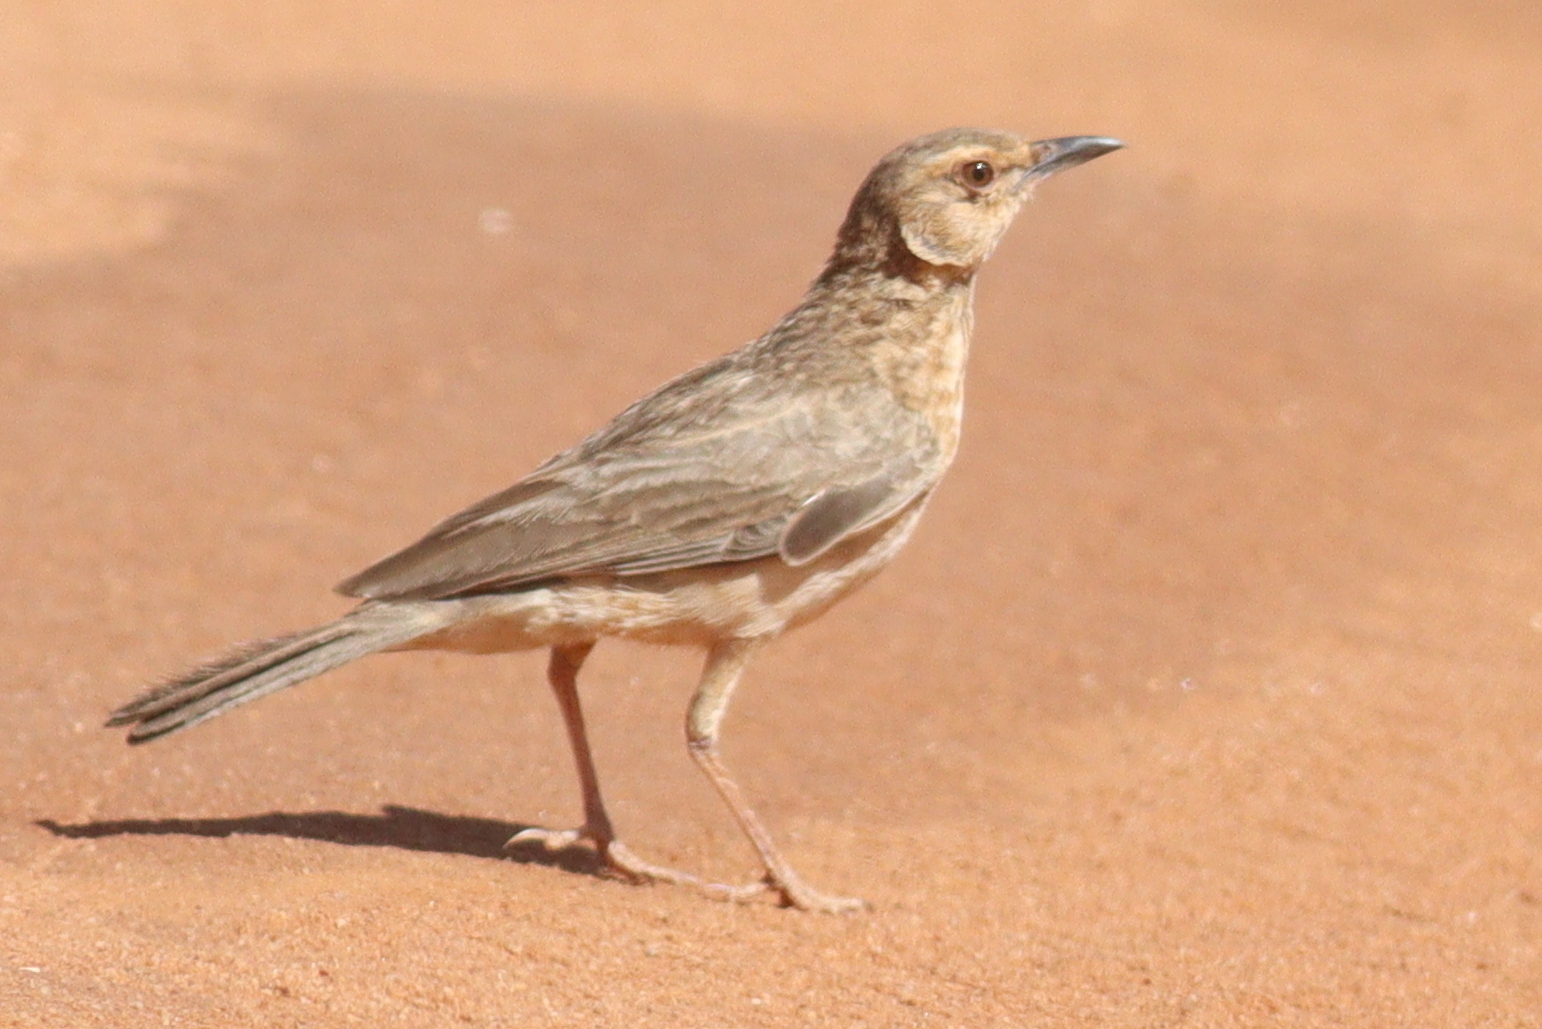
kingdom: Animalia
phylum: Chordata
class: Aves
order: Passeriformes
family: Alaudidae
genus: Calendulauda
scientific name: Calendulauda poecilosterna
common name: Pink-breasted lark
